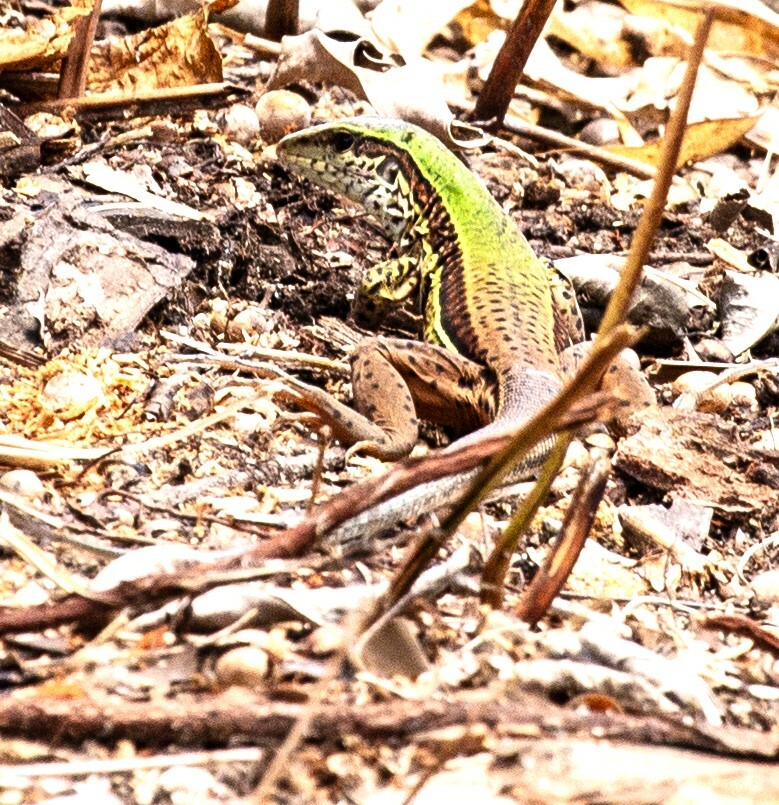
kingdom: Animalia
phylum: Chordata
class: Squamata
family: Teiidae
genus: Ameiva
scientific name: Ameiva ameiva
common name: Giant ameiva
